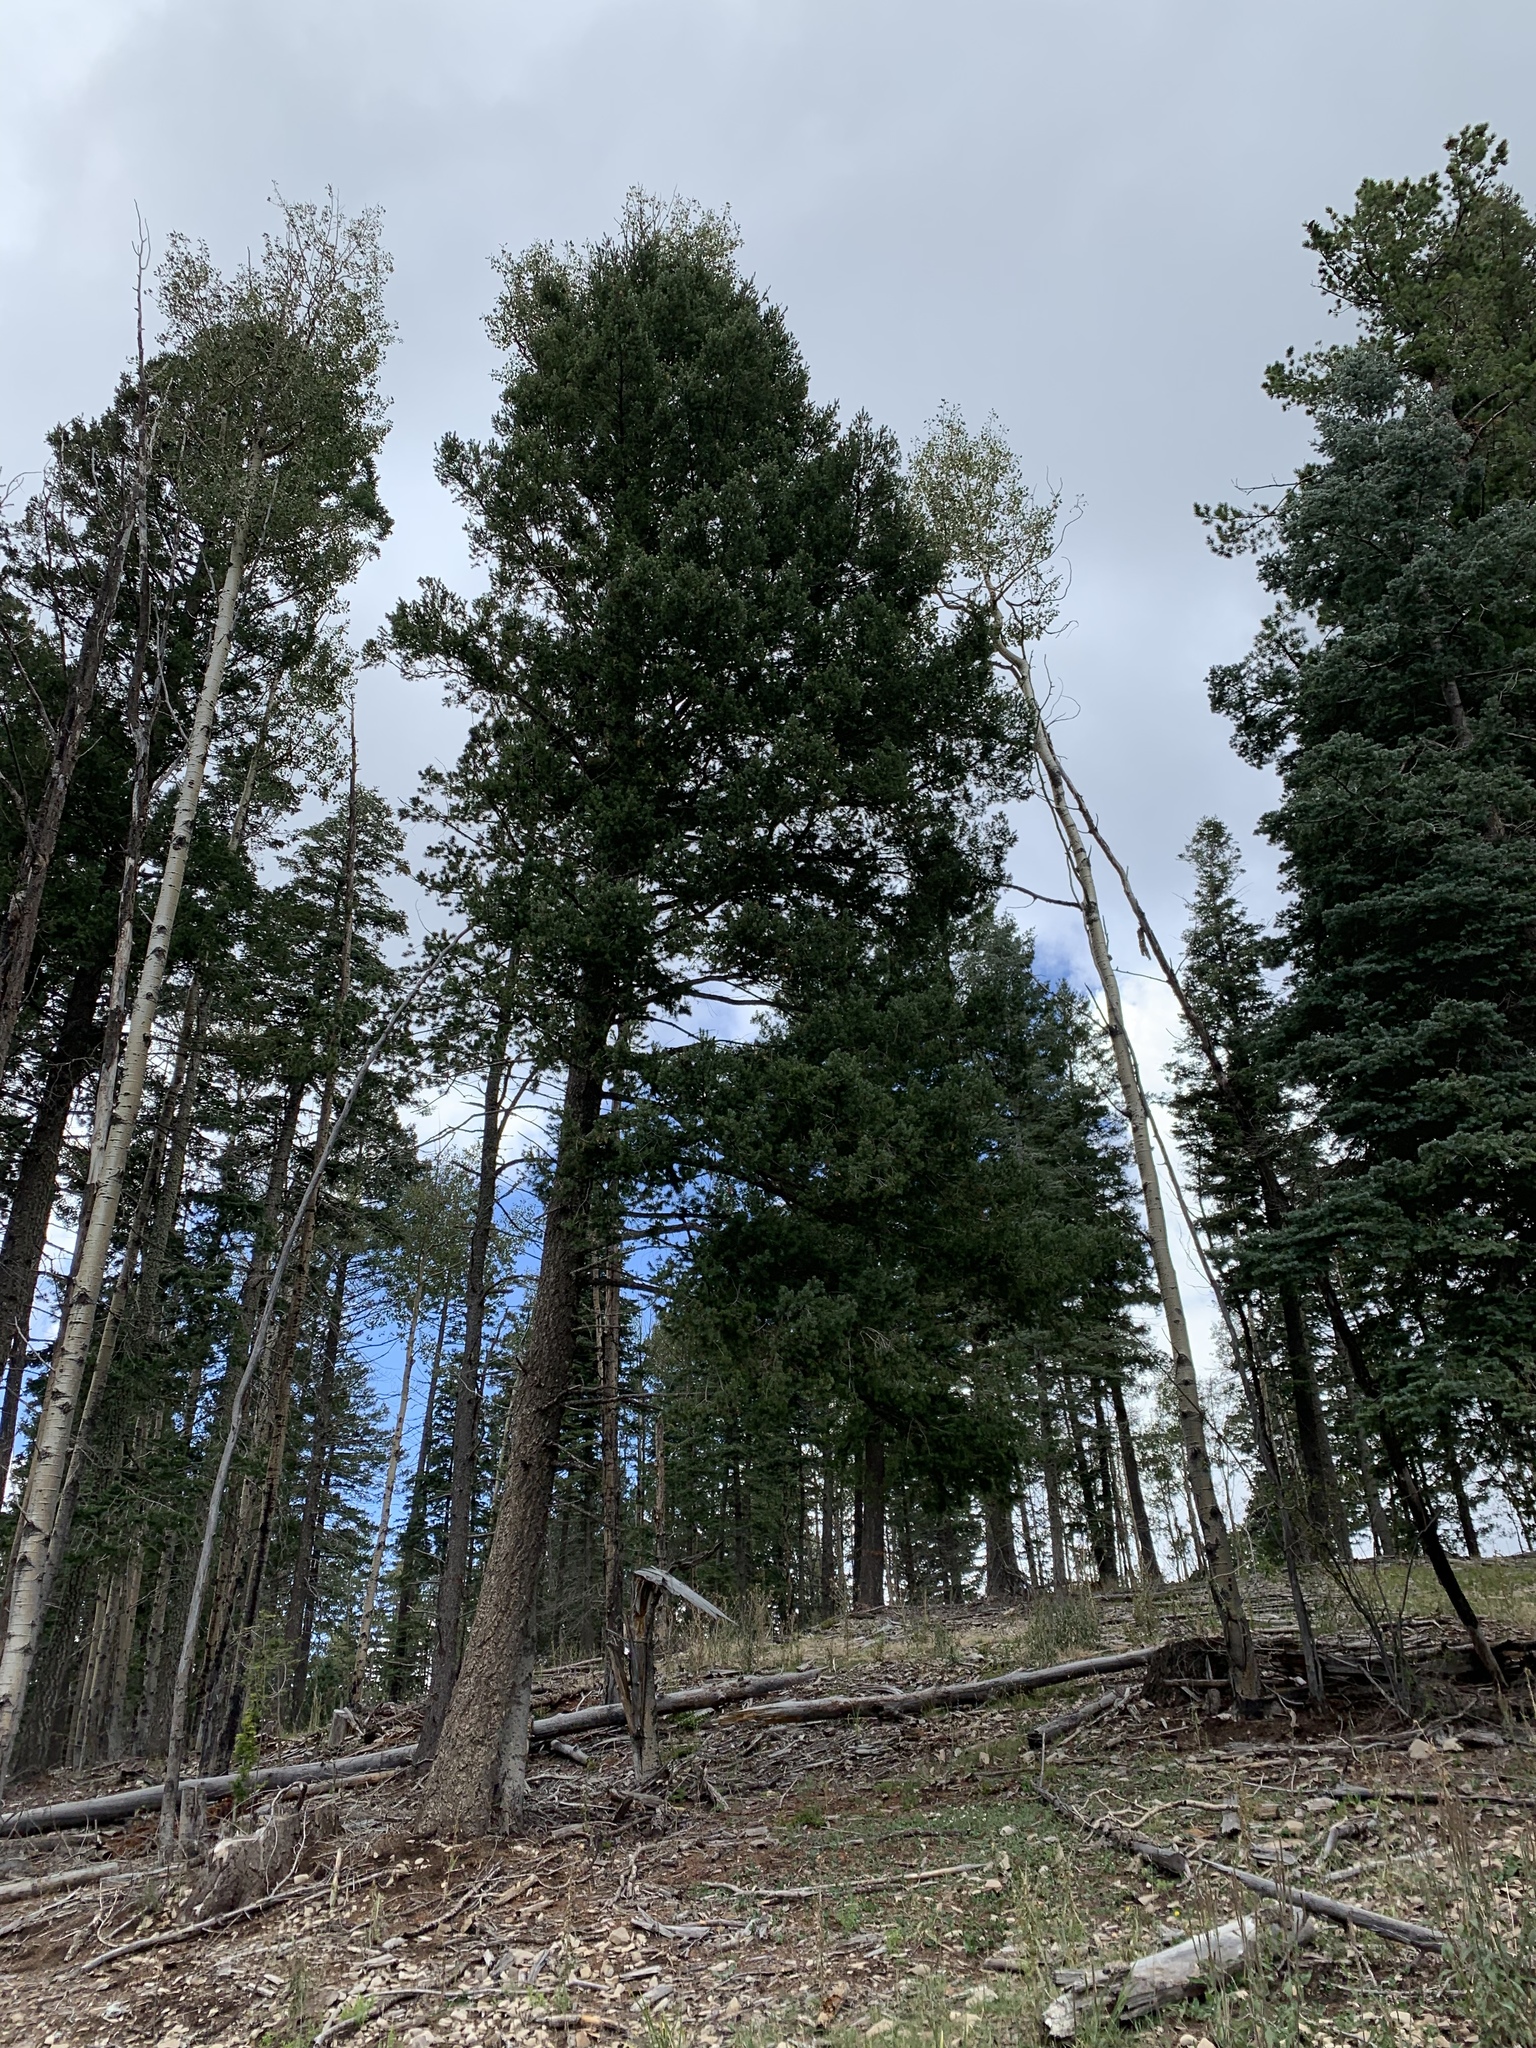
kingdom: Plantae
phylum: Tracheophyta
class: Pinopsida
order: Pinales
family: Pinaceae
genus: Pseudotsuga
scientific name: Pseudotsuga menziesii
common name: Douglas fir
